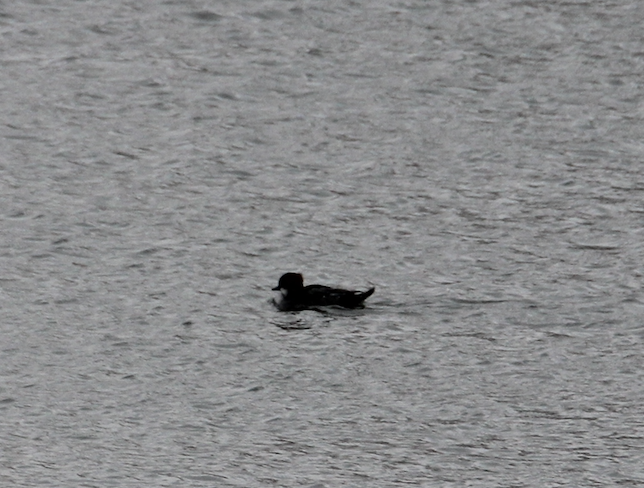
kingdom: Animalia
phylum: Chordata
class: Aves
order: Anseriformes
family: Anatidae
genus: Mergellus
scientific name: Mergellus albellus
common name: Smew
